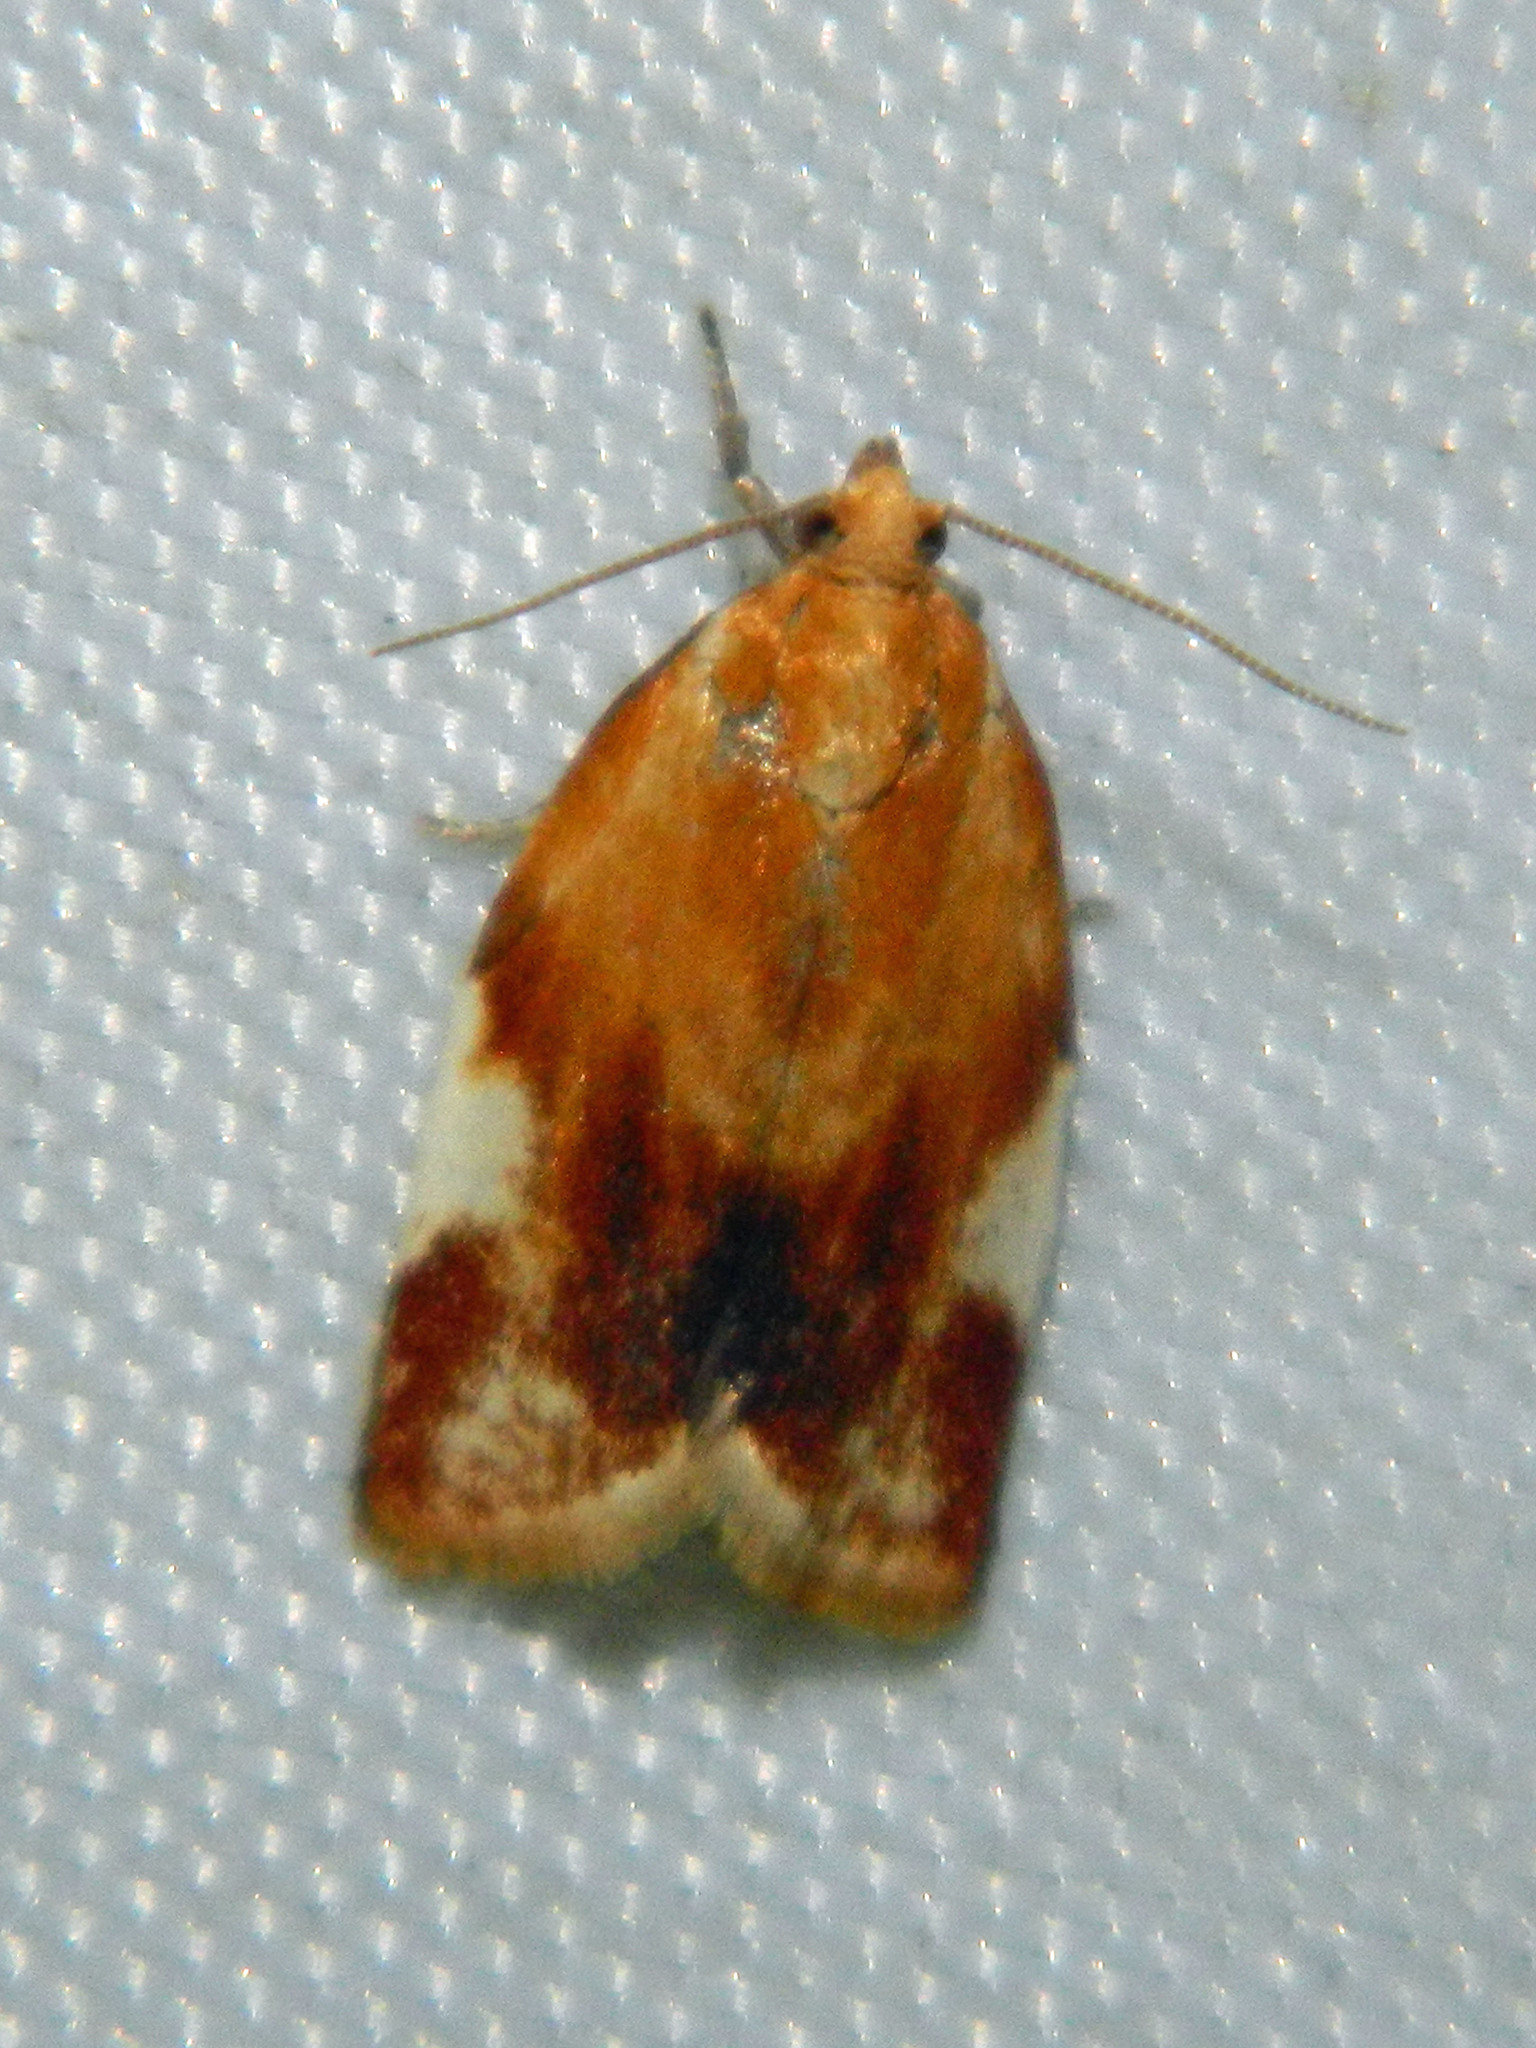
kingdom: Animalia
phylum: Arthropoda
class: Insecta
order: Lepidoptera
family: Tortricidae
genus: Clepsis
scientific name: Clepsis persicana
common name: White triangle tortrix
